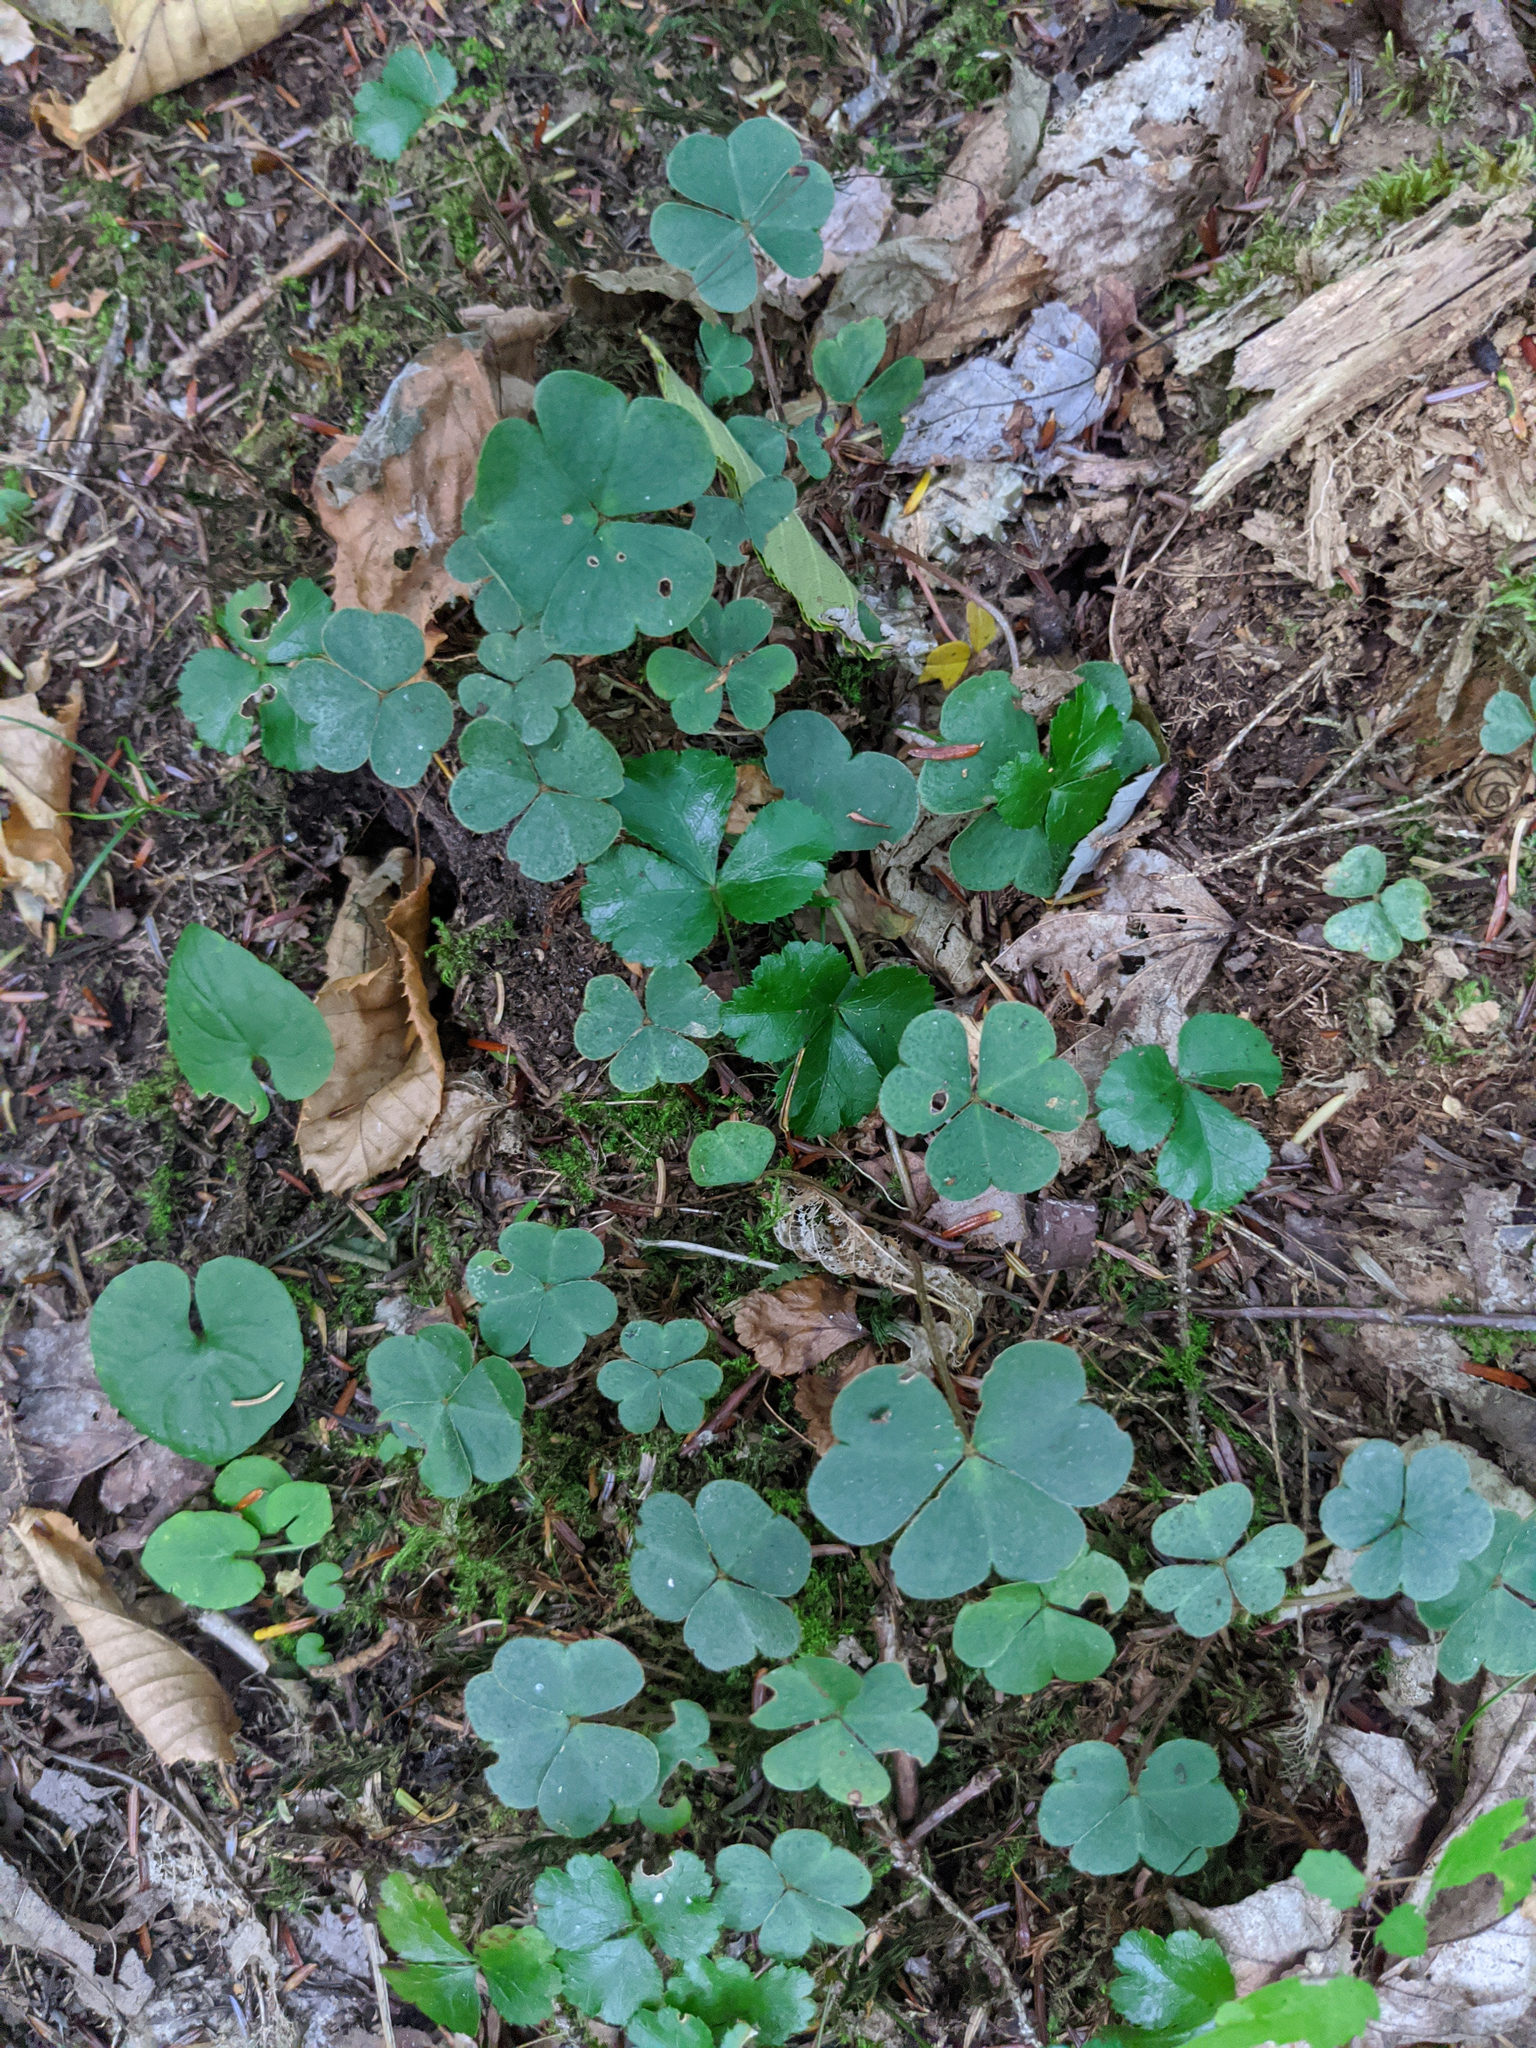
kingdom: Plantae
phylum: Tracheophyta
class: Magnoliopsida
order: Oxalidales
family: Oxalidaceae
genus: Oxalis
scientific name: Oxalis montana
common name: American wood-sorrel
